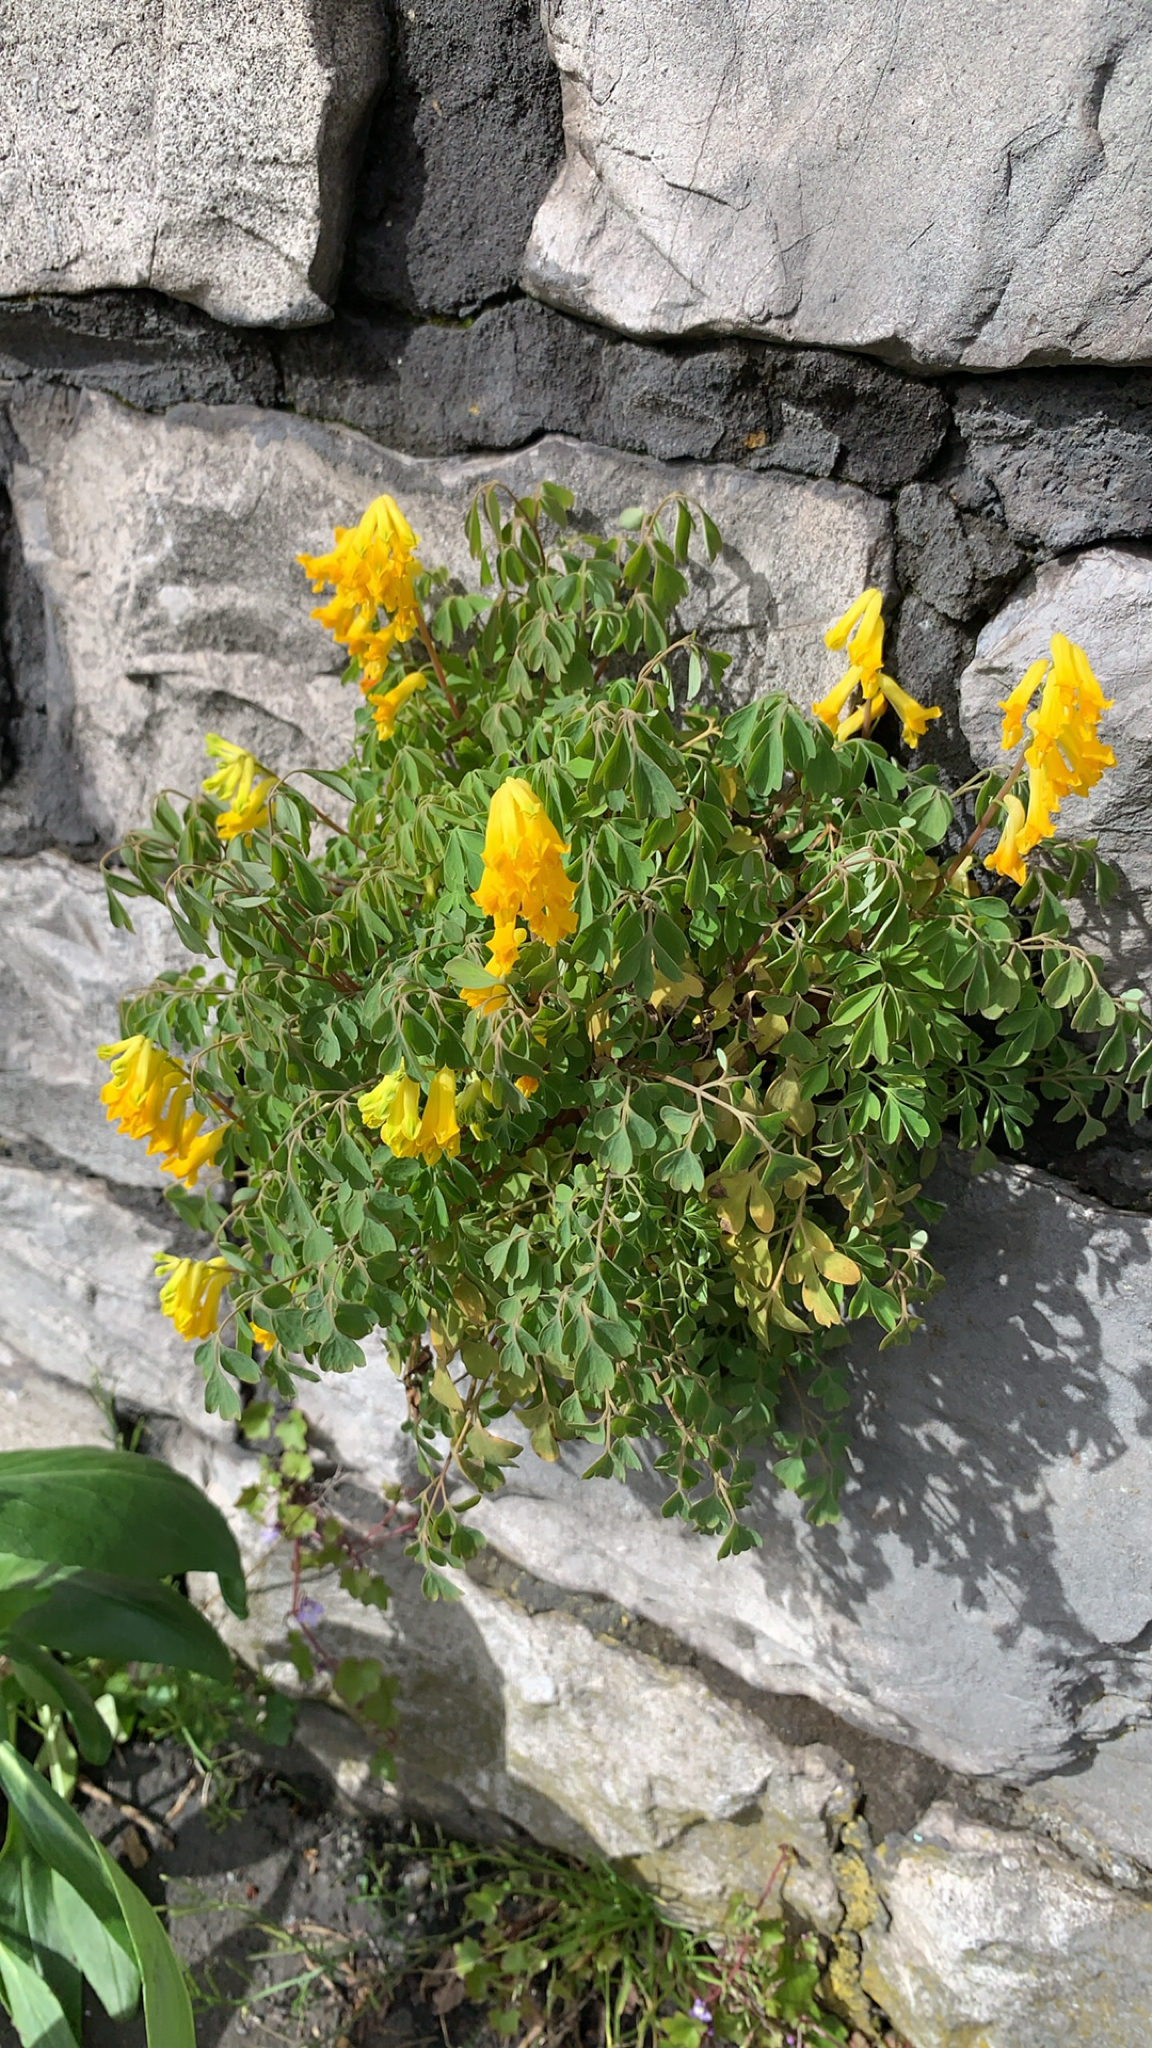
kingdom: Plantae
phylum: Tracheophyta
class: Magnoliopsida
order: Ranunculales
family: Papaveraceae
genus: Pseudofumaria
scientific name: Pseudofumaria lutea
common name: Yellow corydalis
